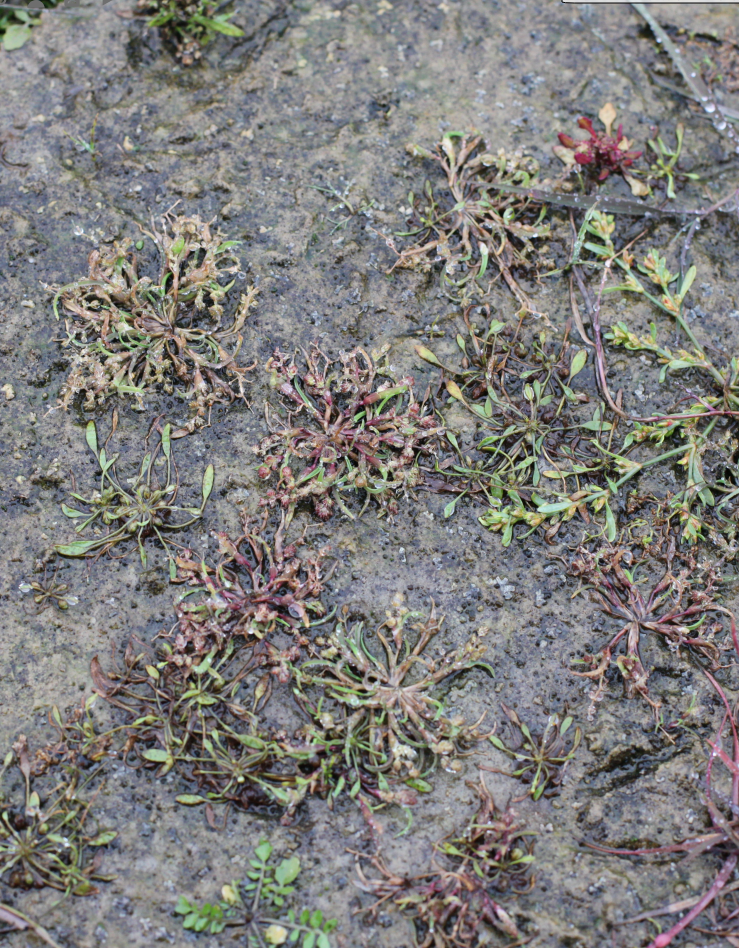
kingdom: Plantae
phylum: Tracheophyta
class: Liliopsida
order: Poales
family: Poaceae
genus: Coleanthus
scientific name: Coleanthus subtilis
